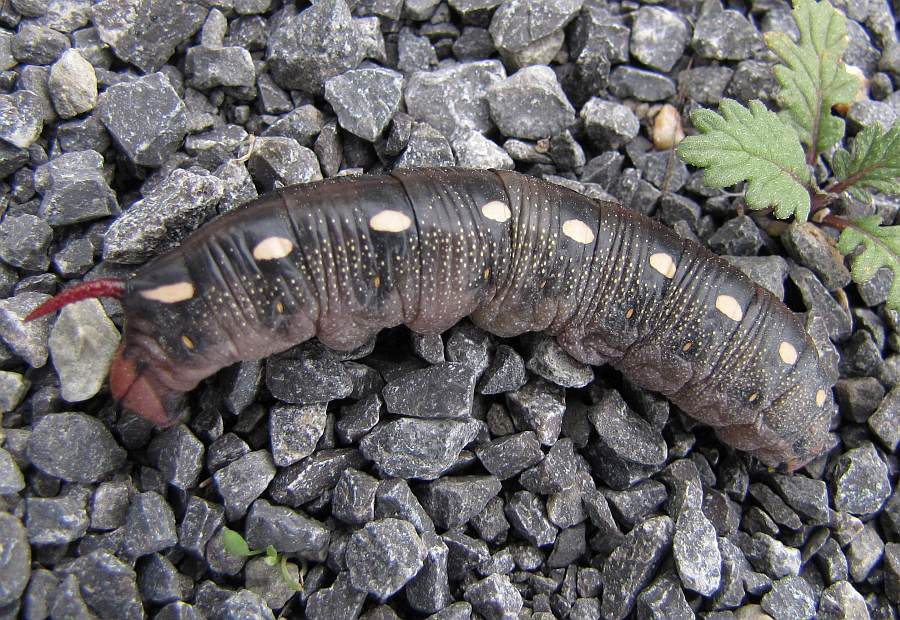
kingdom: Animalia
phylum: Arthropoda
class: Insecta
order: Lepidoptera
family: Sphingidae
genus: Hyles
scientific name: Hyles gallii
